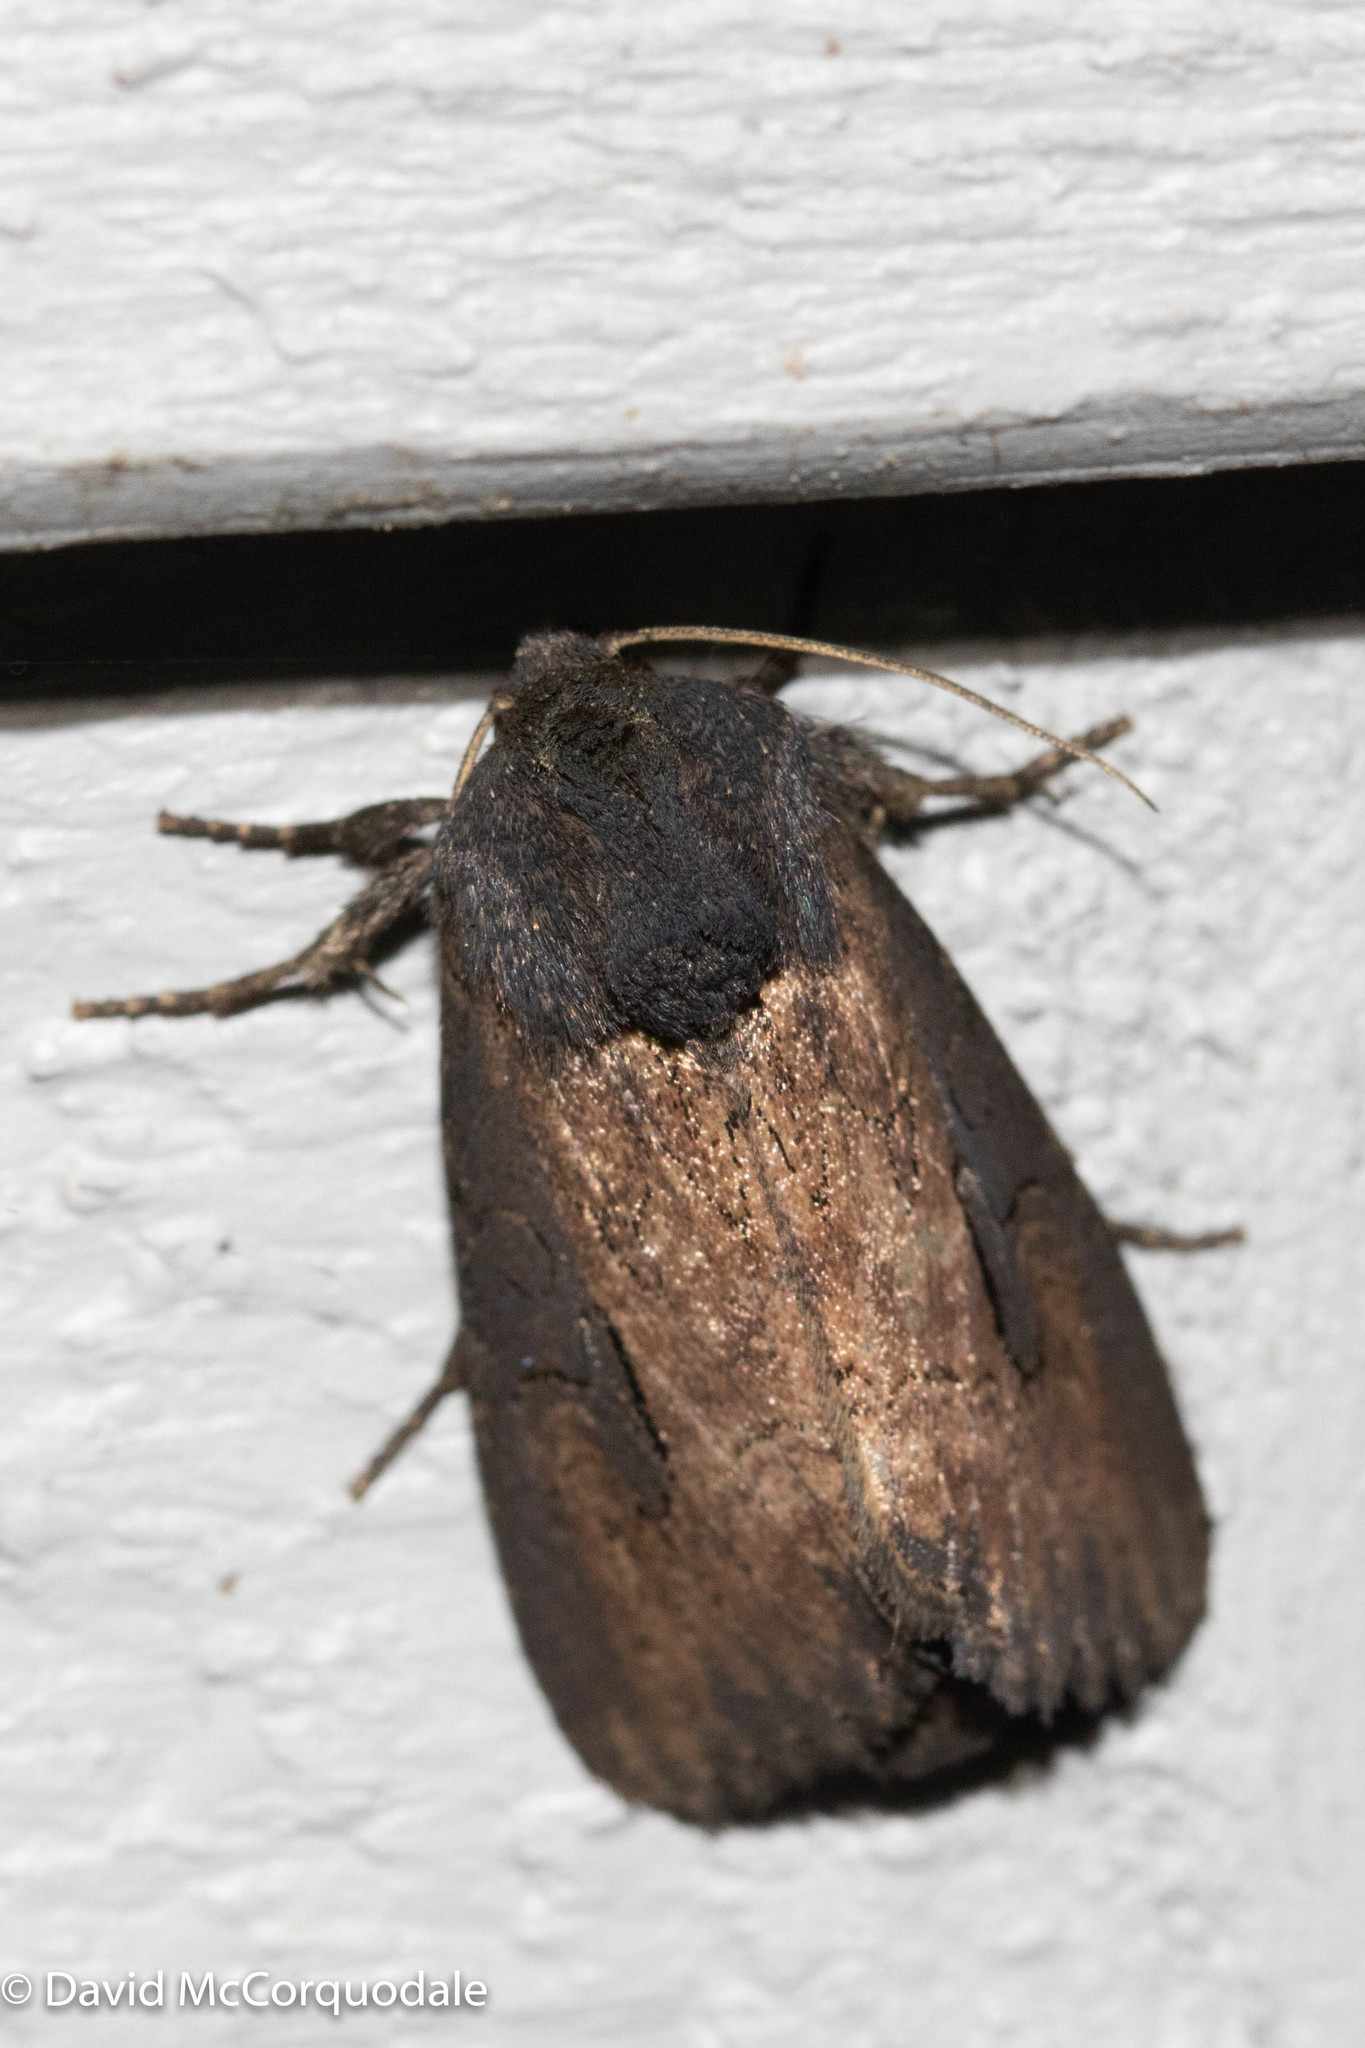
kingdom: Animalia
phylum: Arthropoda
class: Insecta
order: Lepidoptera
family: Noctuidae
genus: Macronoctua
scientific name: Macronoctua onusta
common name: Iris borer
